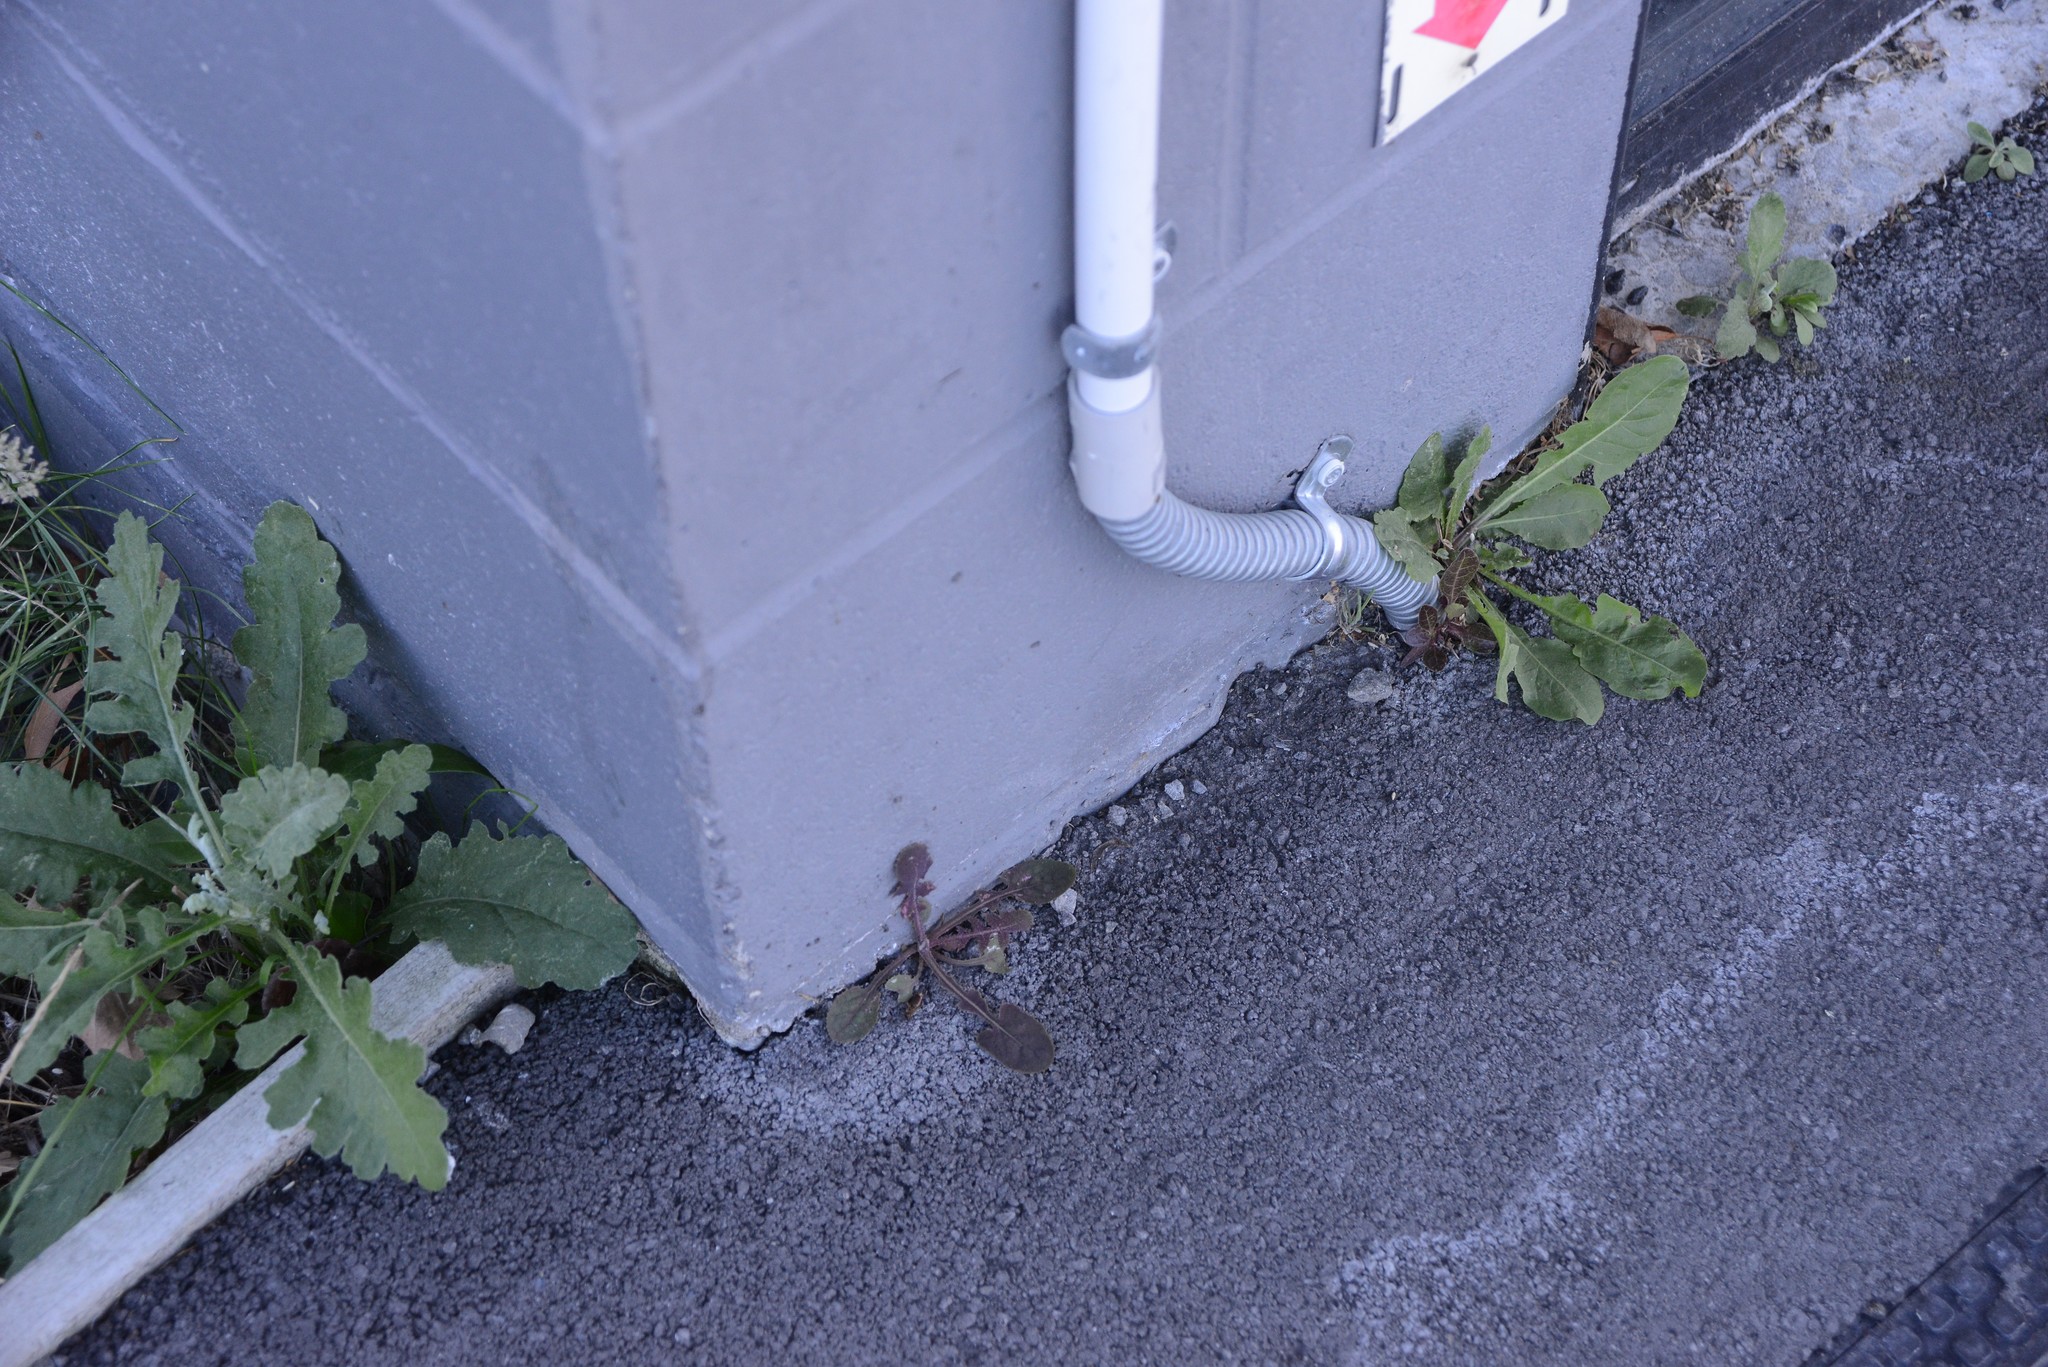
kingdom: Plantae
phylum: Tracheophyta
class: Magnoliopsida
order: Asterales
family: Asteraceae
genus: Senecio
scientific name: Senecio glomeratus
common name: Cutleaf burnweed
